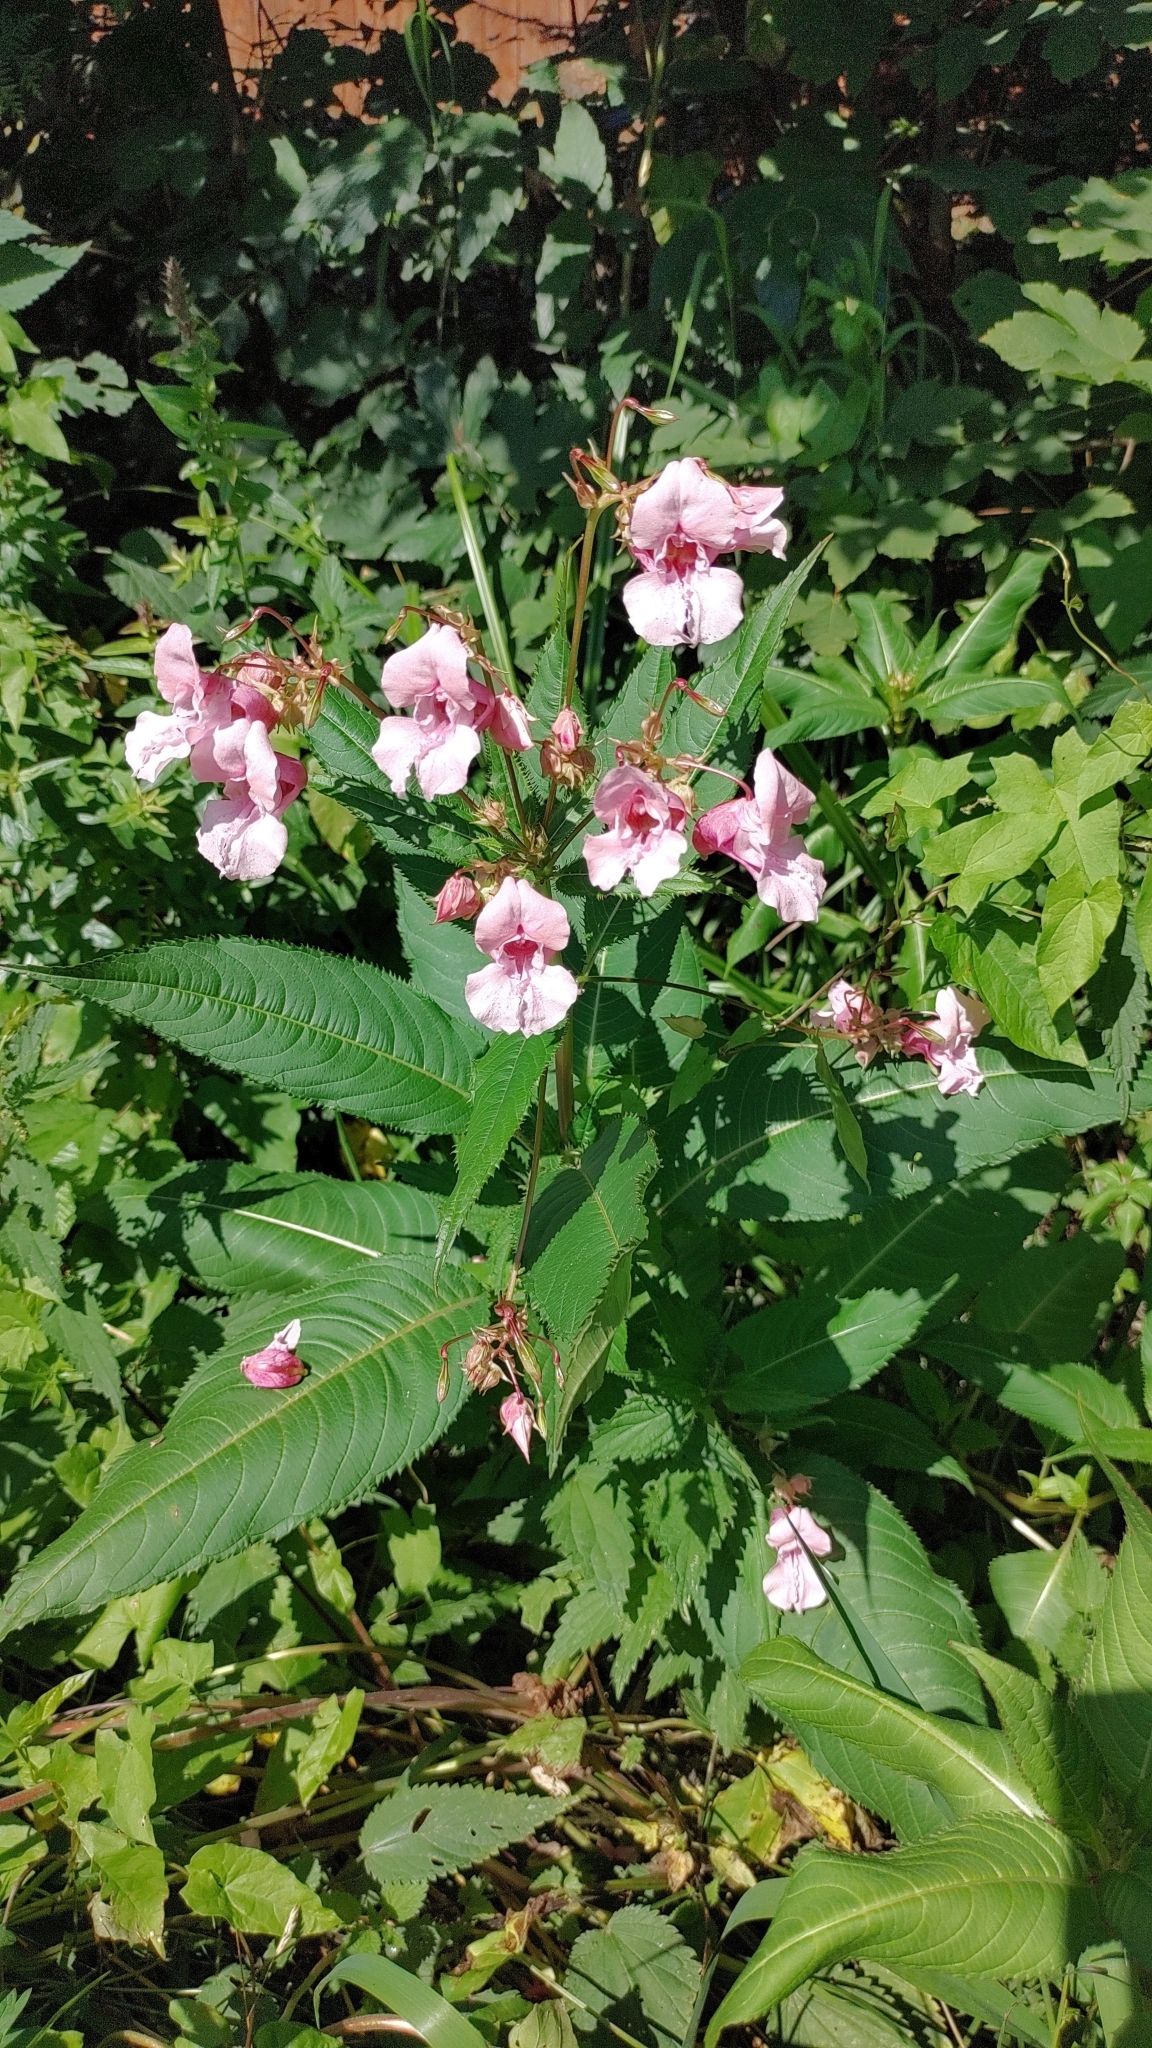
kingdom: Plantae
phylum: Tracheophyta
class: Magnoliopsida
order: Ericales
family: Balsaminaceae
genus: Impatiens
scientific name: Impatiens glandulifera
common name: Himalayan balsam
